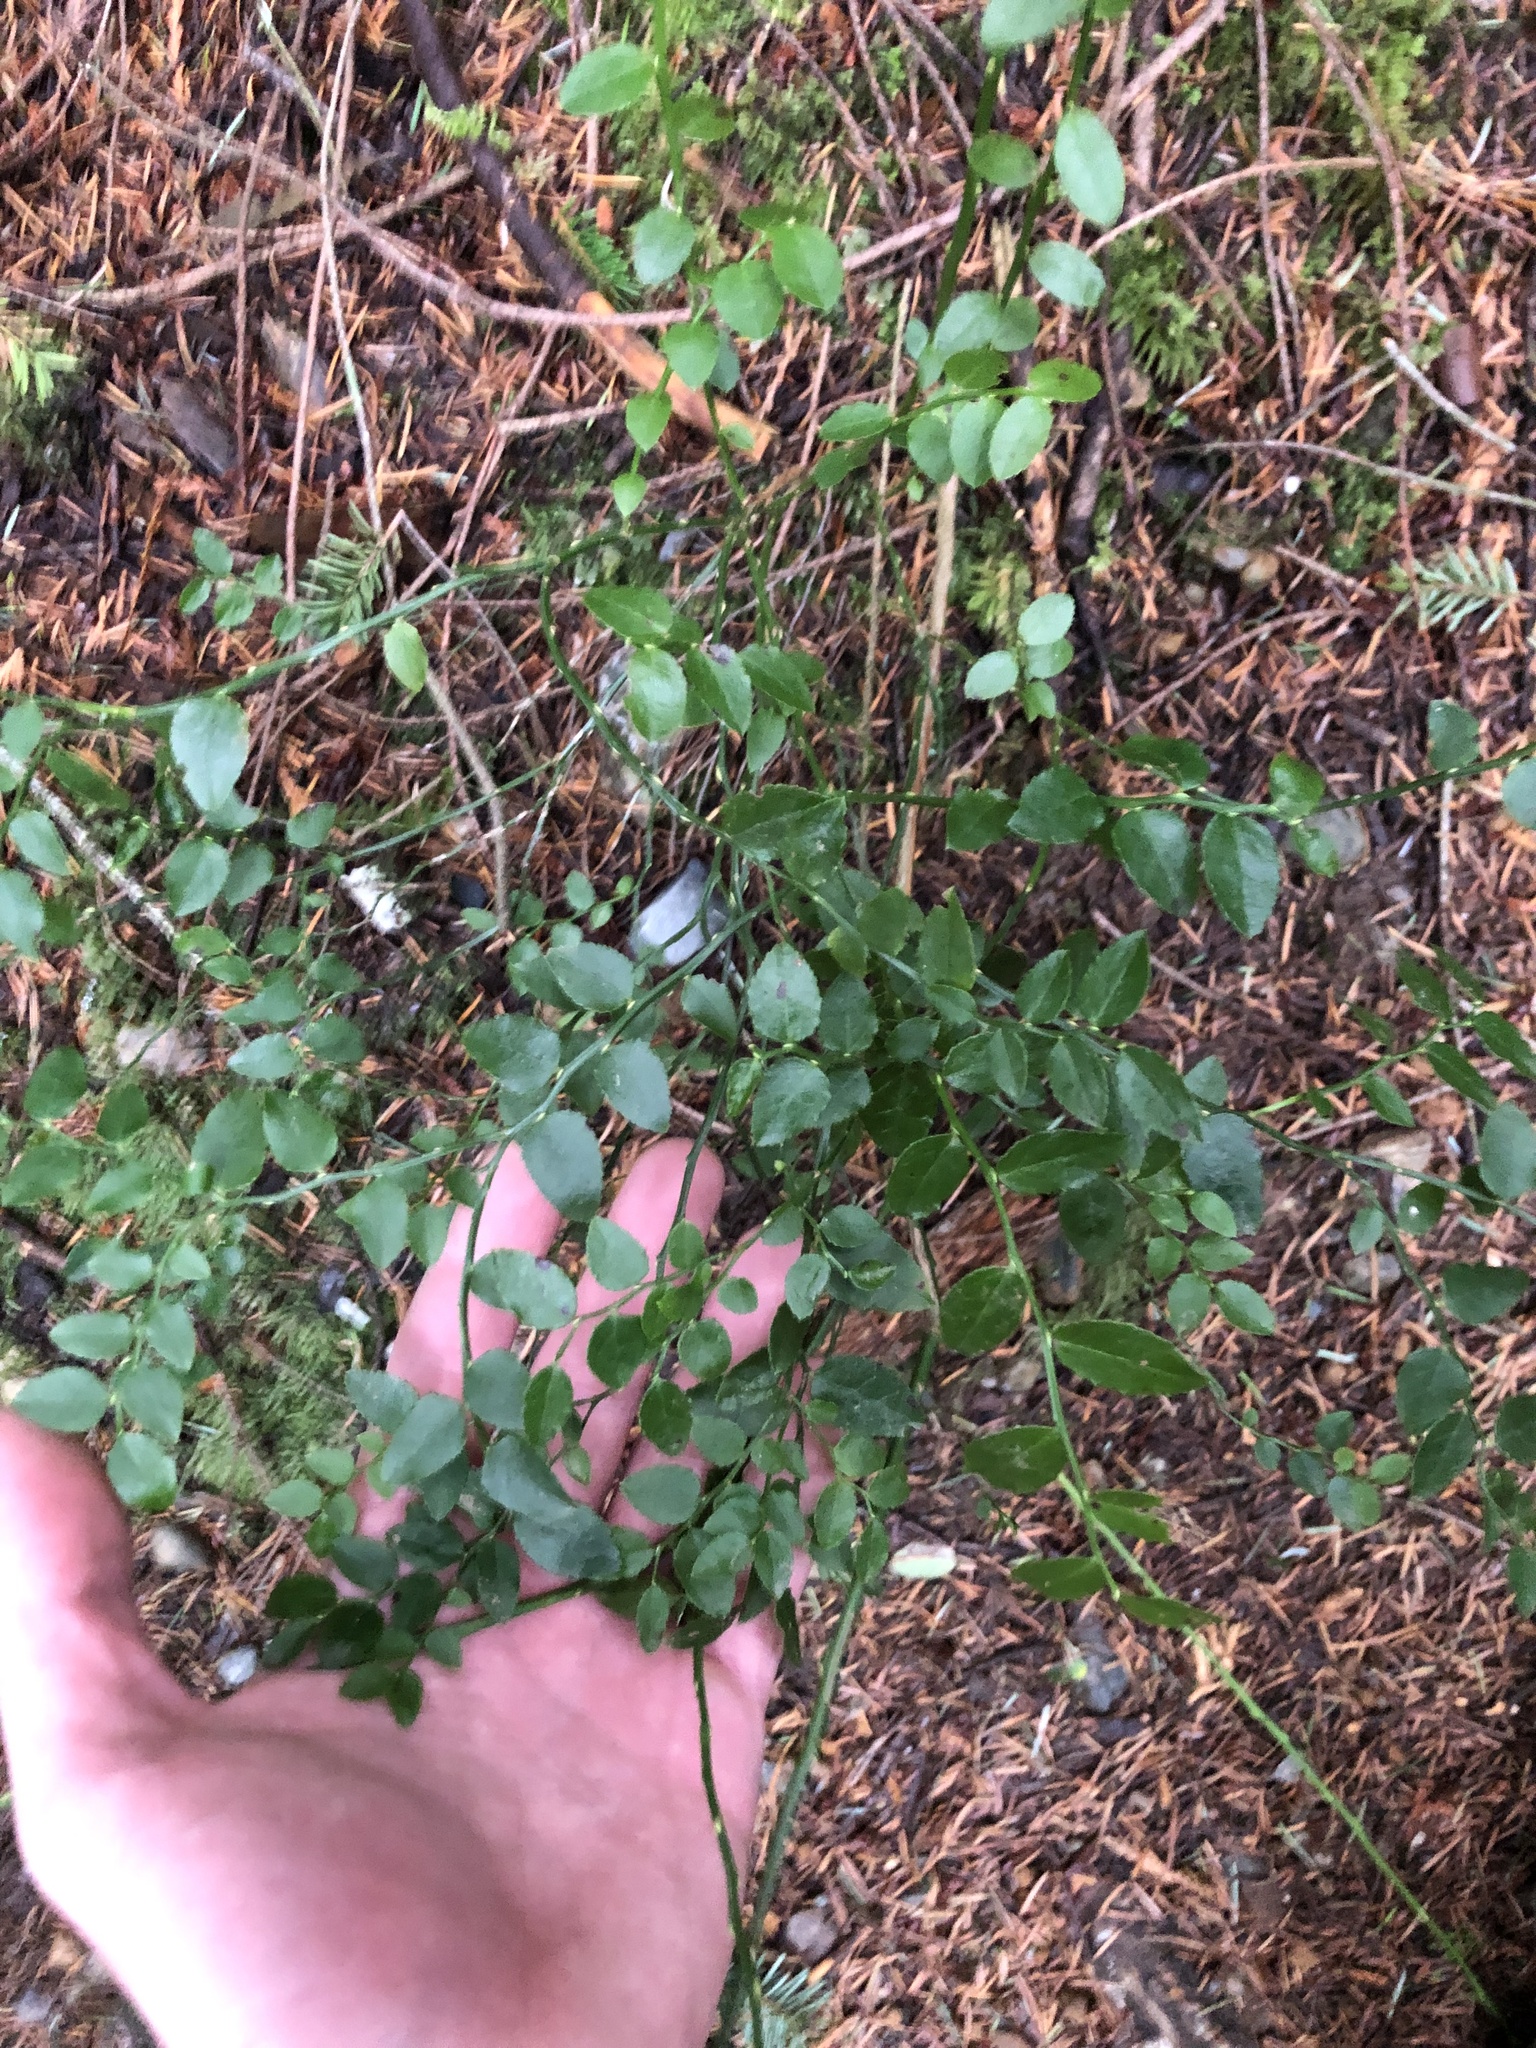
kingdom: Plantae
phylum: Tracheophyta
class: Magnoliopsida
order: Ericales
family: Ericaceae
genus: Vaccinium
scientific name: Vaccinium parvifolium
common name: Red-huckleberry
